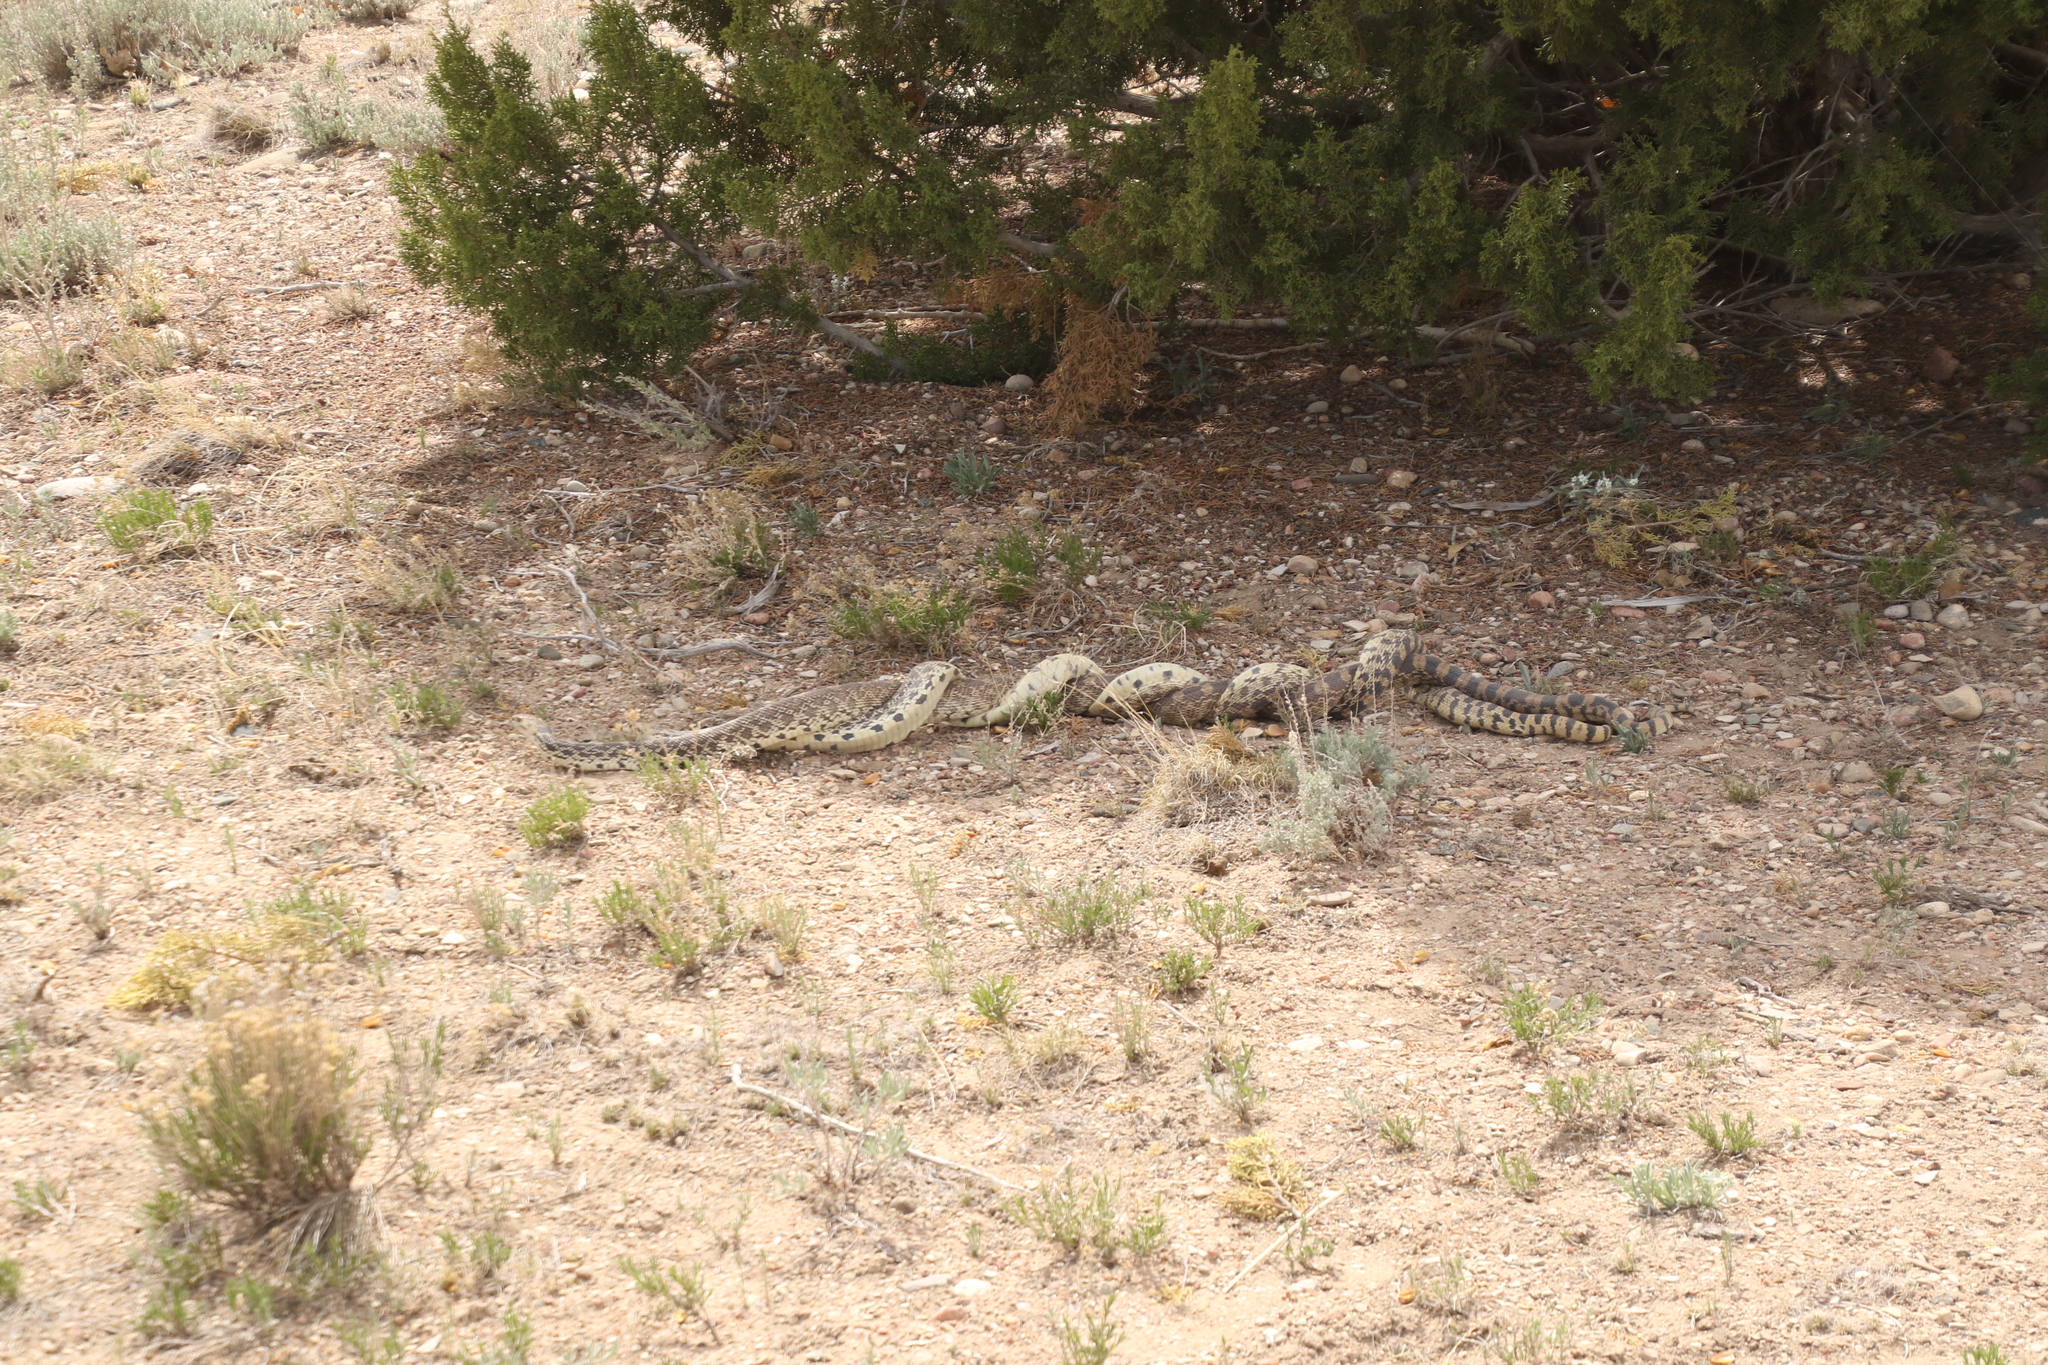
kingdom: Animalia
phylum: Chordata
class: Squamata
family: Colubridae
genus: Pituophis
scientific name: Pituophis catenifer
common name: Gopher snake
